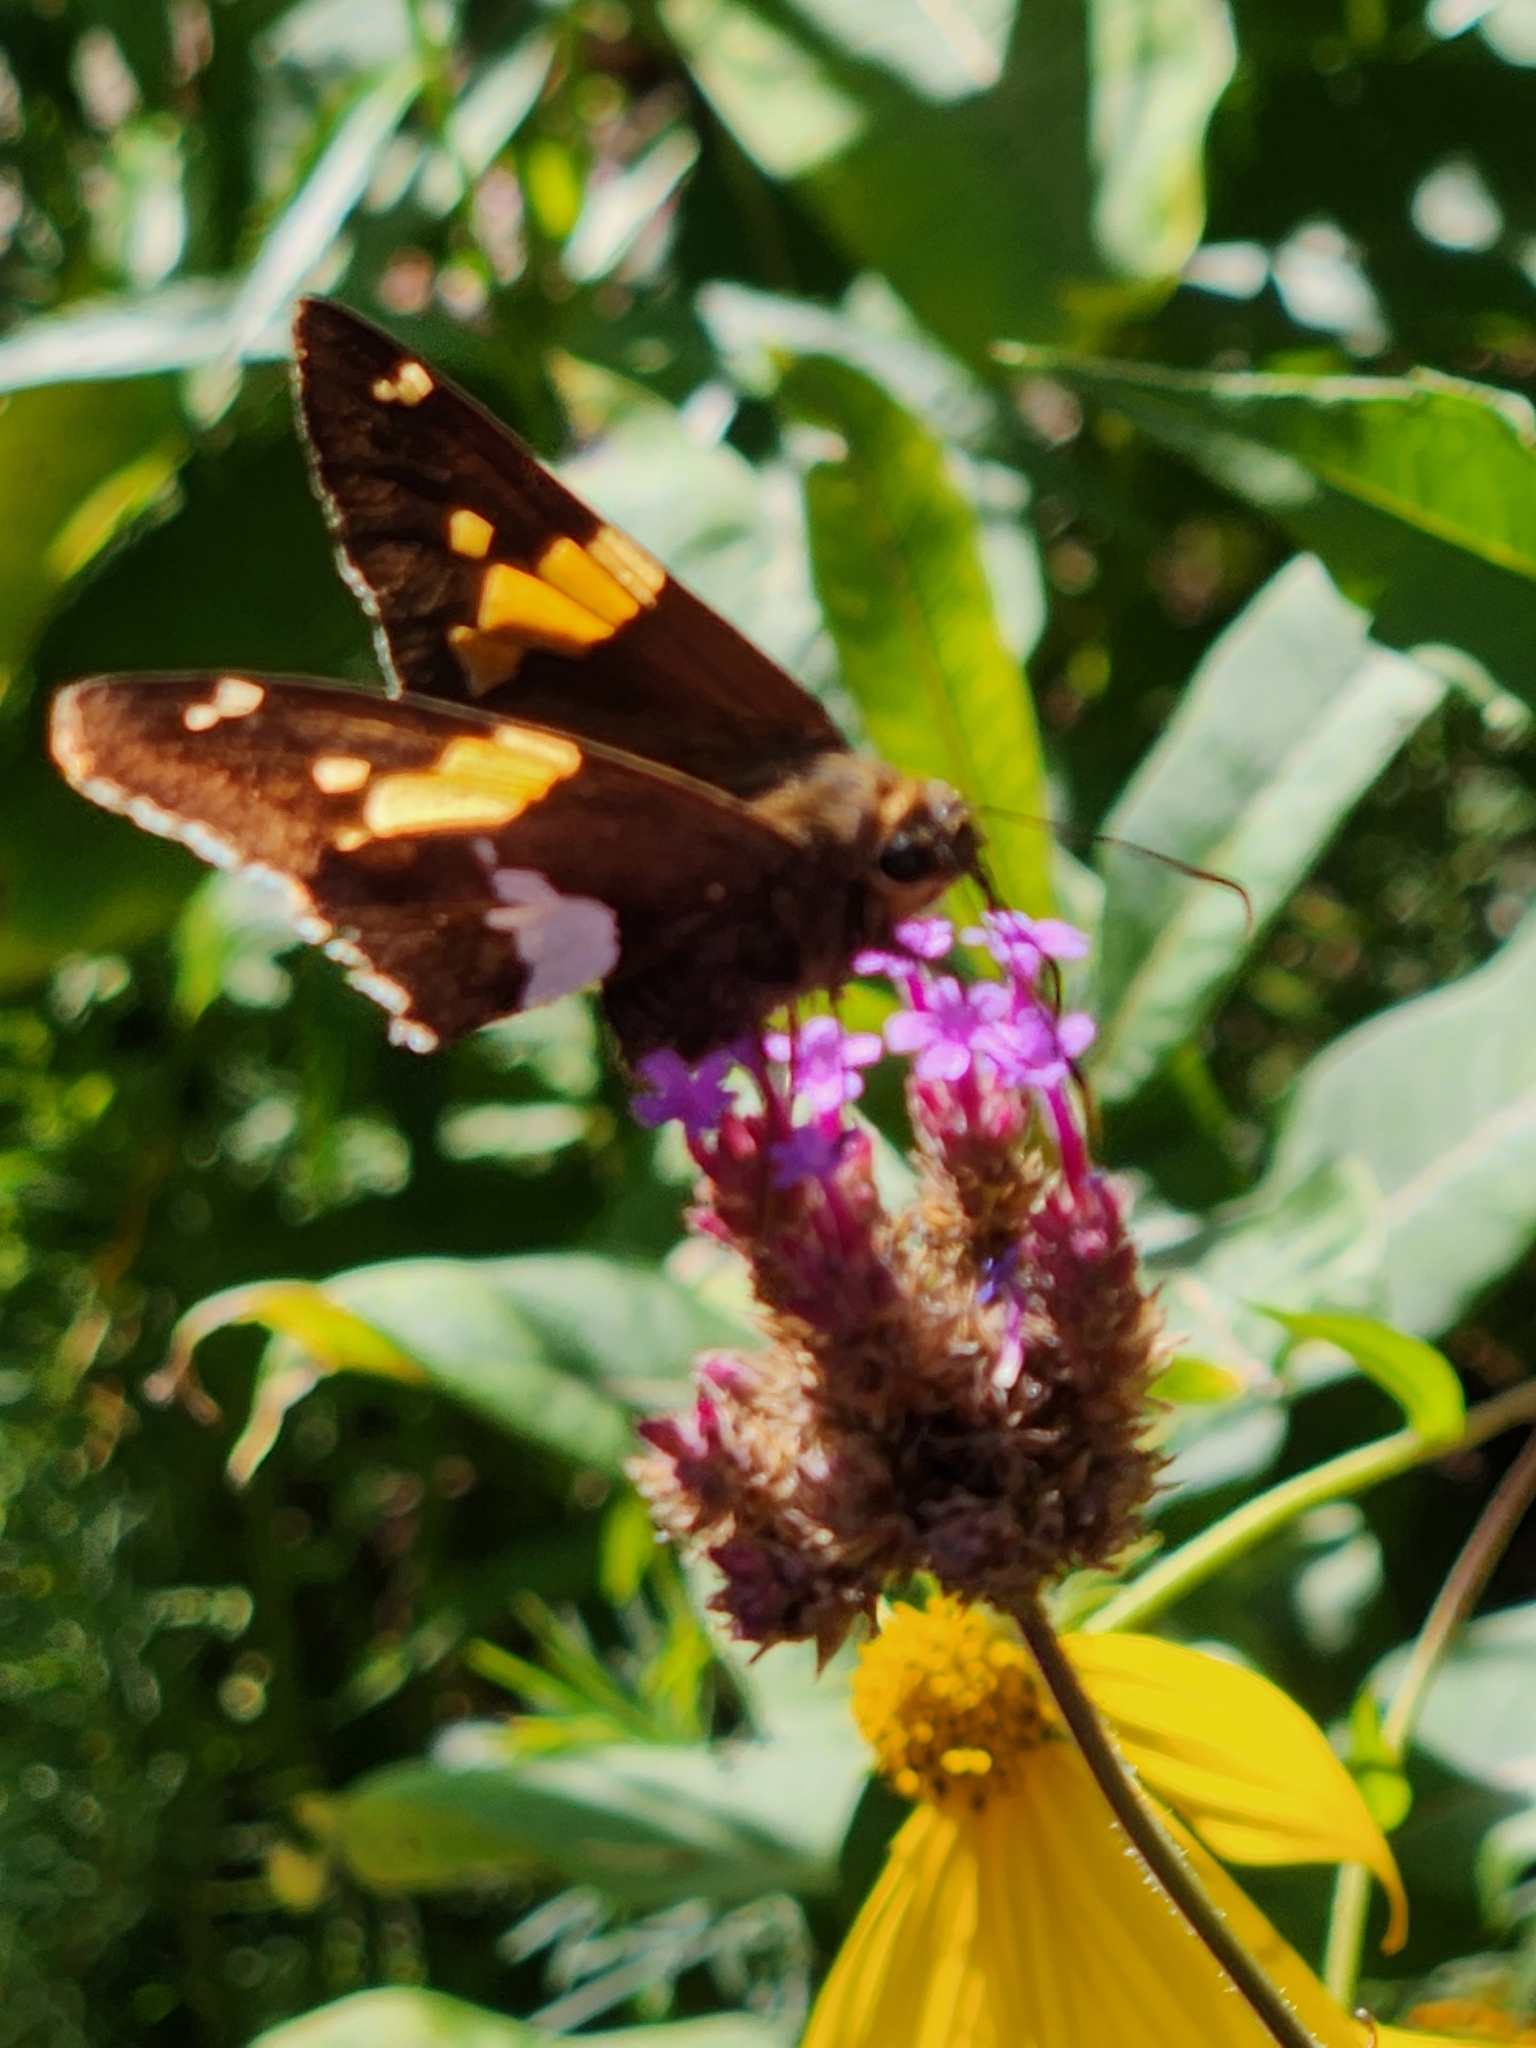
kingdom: Animalia
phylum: Arthropoda
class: Insecta
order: Lepidoptera
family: Hesperiidae
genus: Epargyreus
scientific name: Epargyreus clarus
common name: Silver-spotted skipper
